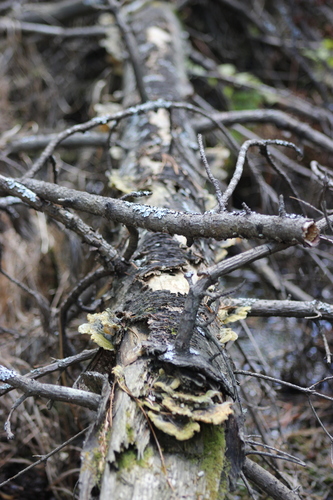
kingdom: Fungi
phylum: Basidiomycota
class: Agaricomycetes
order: Hymenochaetales
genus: Trichaptum
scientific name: Trichaptum
